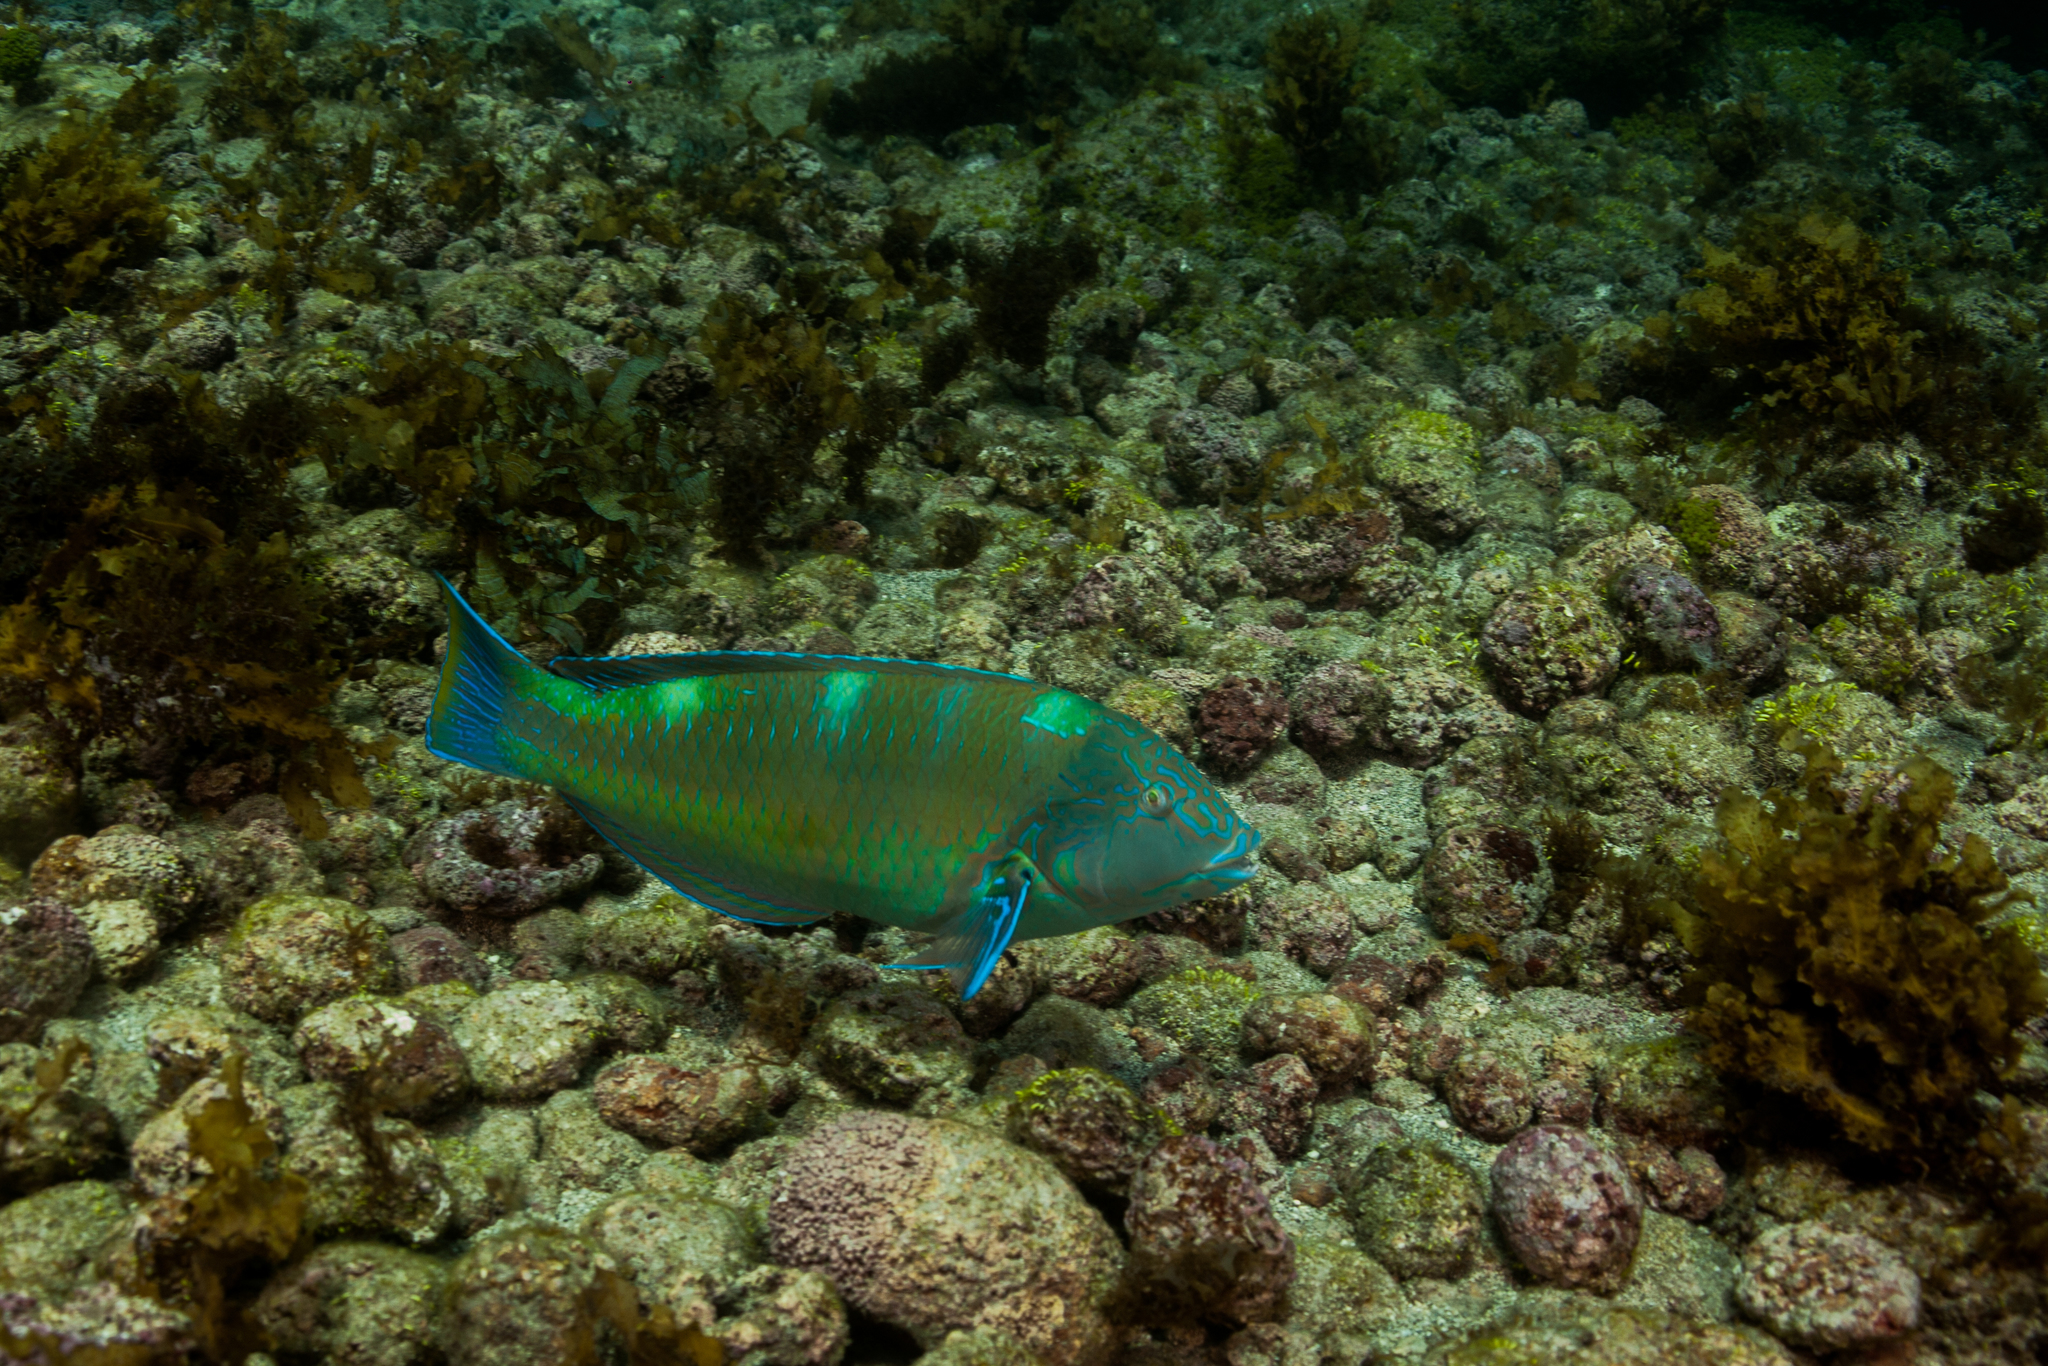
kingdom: Animalia
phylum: Chordata
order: Perciformes
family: Labridae
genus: Halichoeres
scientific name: Halichoeres radiatus
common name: Puddingwife
